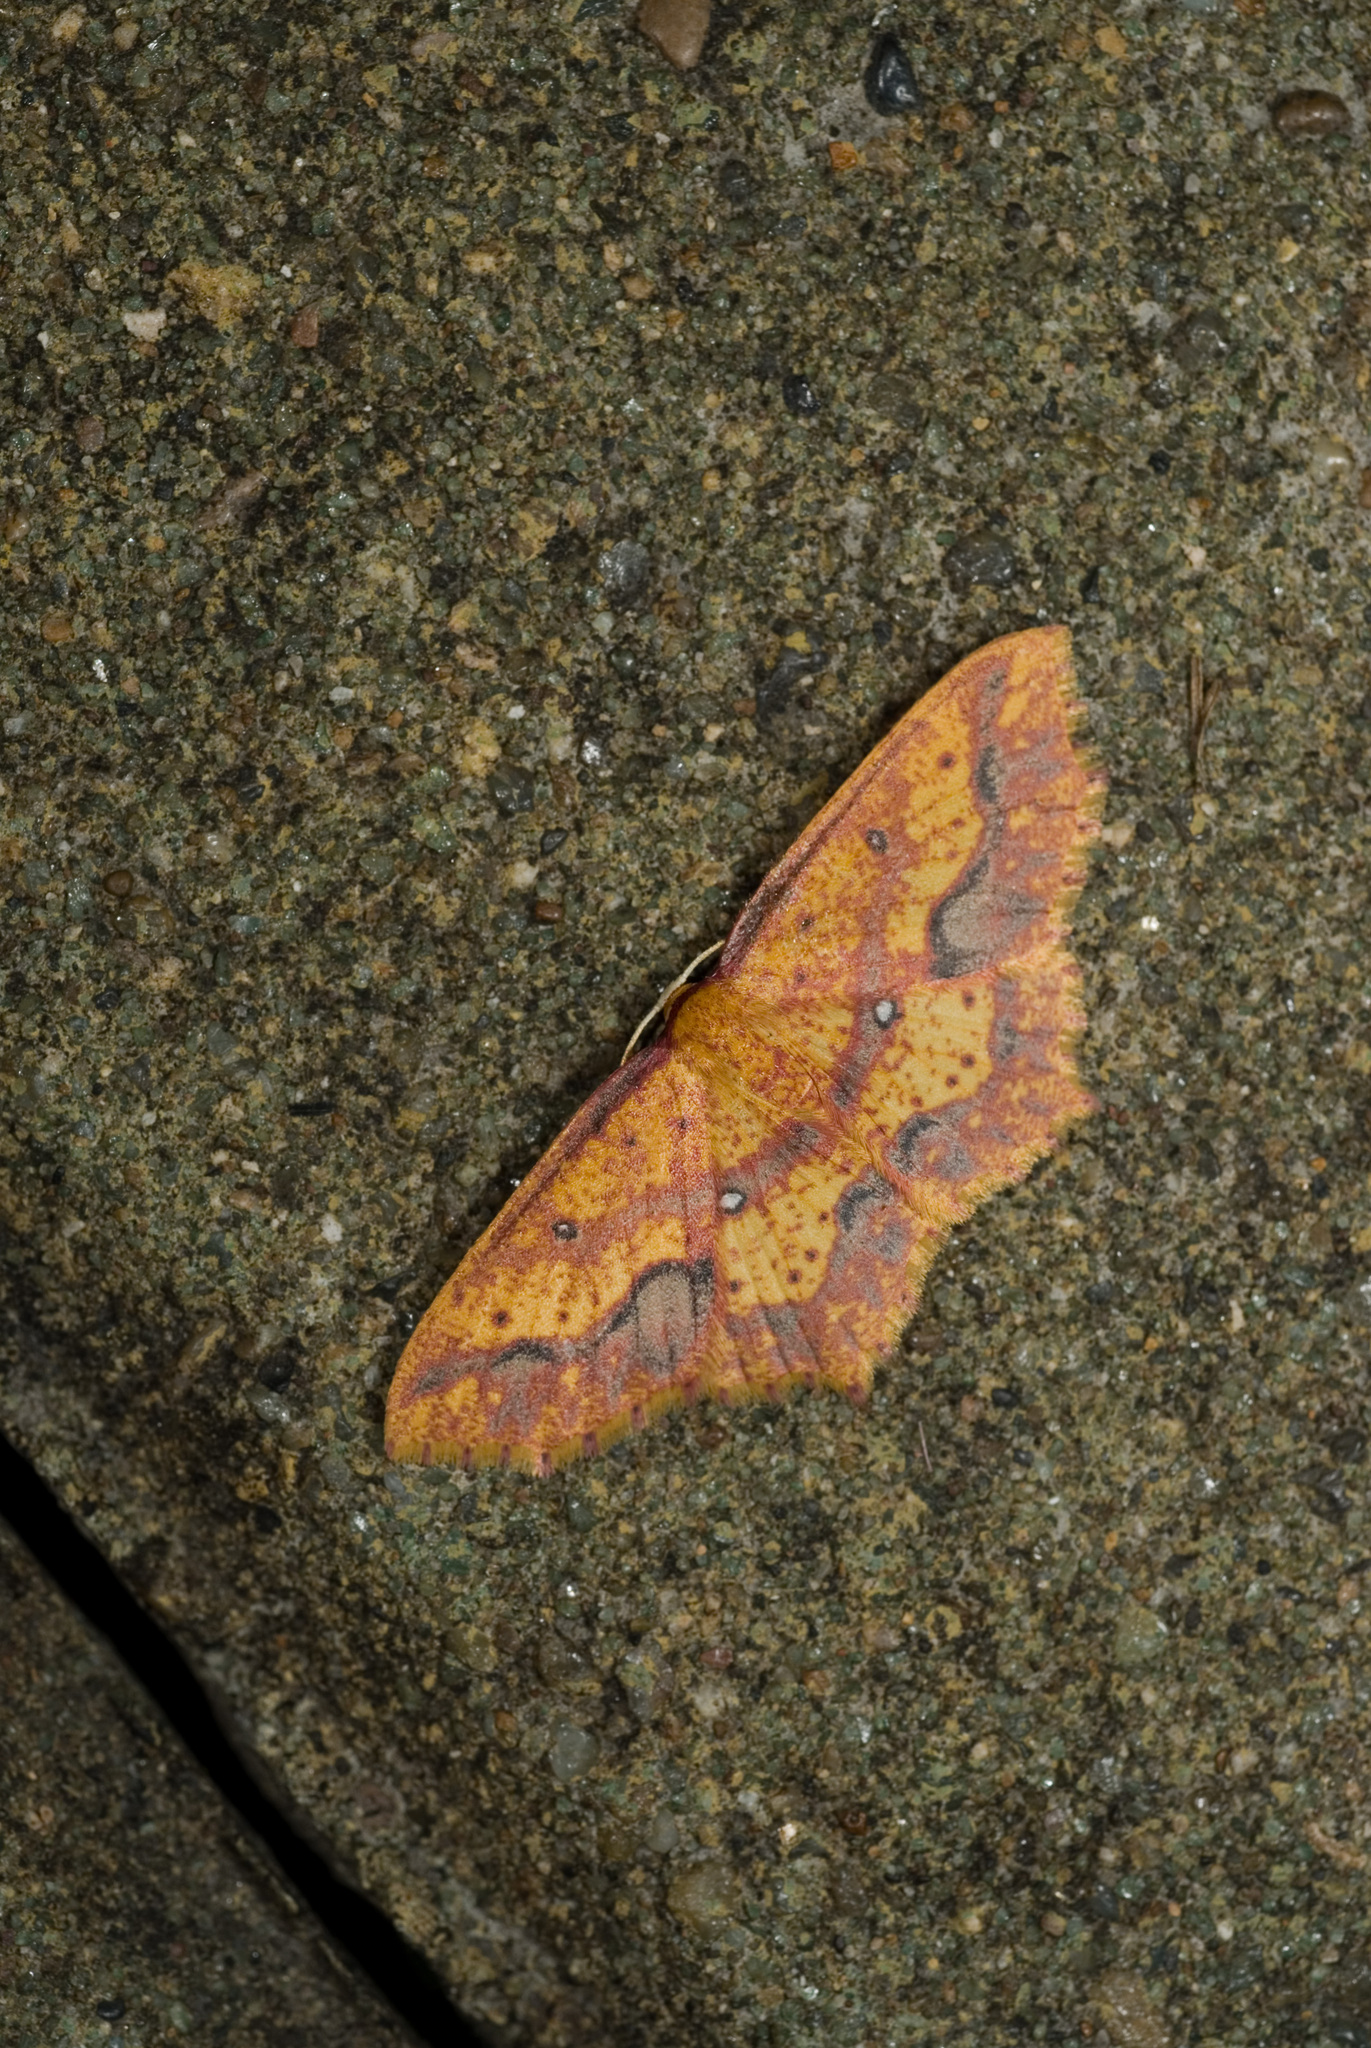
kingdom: Animalia
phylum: Arthropoda
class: Insecta
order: Lepidoptera
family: Geometridae
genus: Synegiodes
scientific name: Synegiodes ornata
